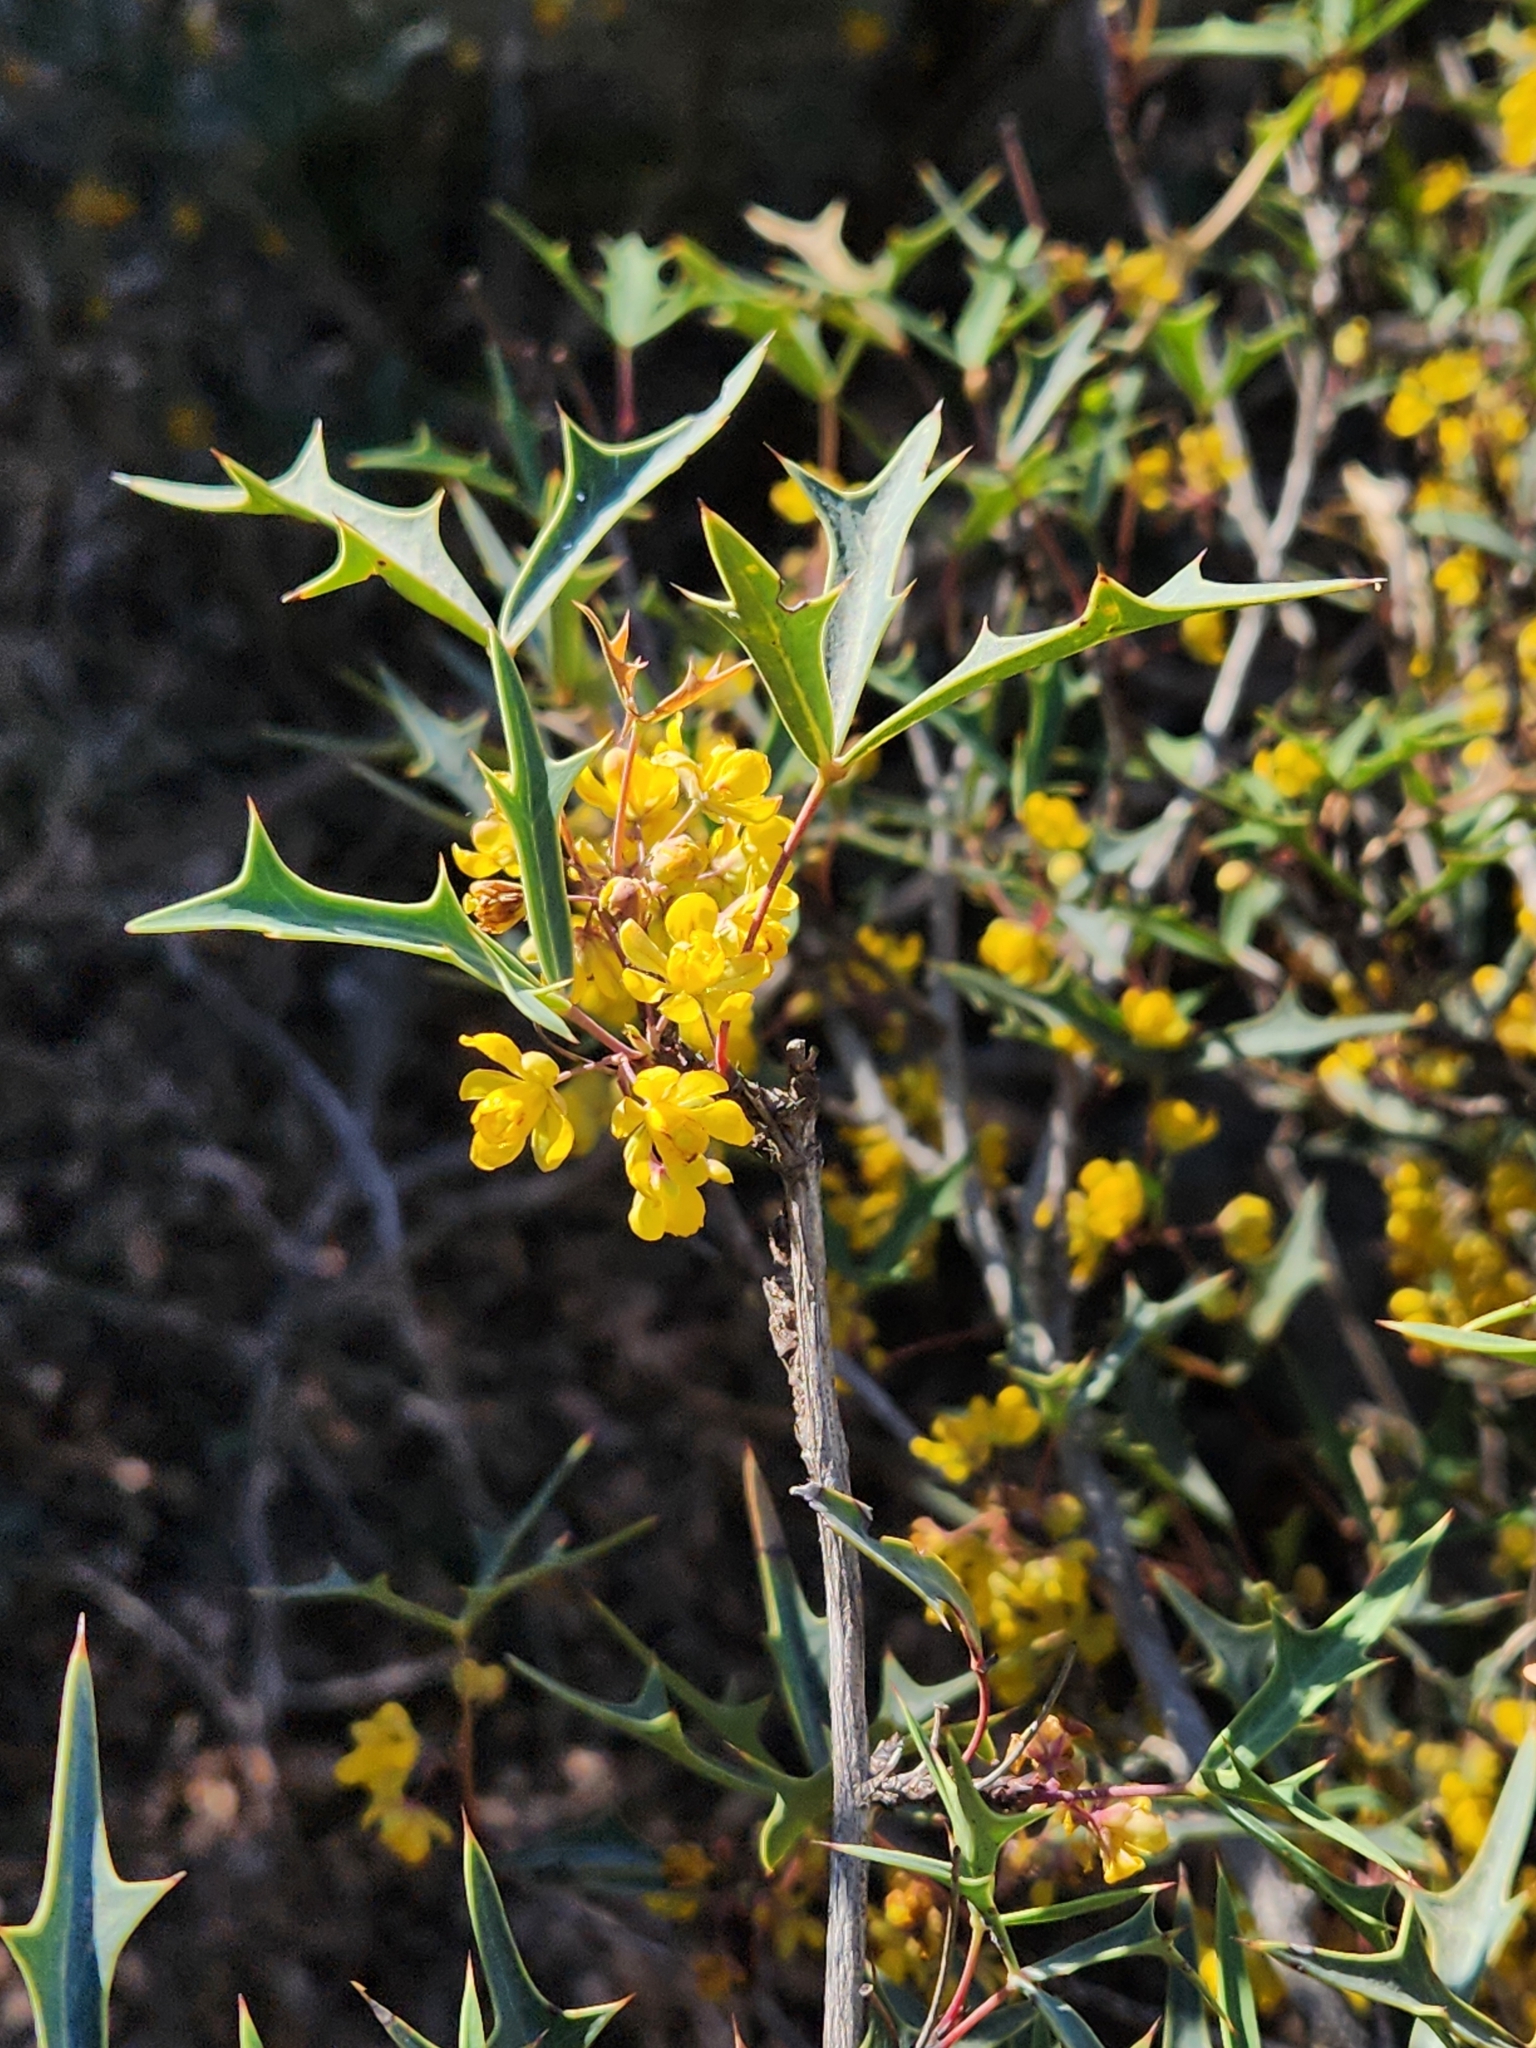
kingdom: Plantae
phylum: Tracheophyta
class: Magnoliopsida
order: Ranunculales
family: Berberidaceae
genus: Alloberberis
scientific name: Alloberberis trifoliolata
